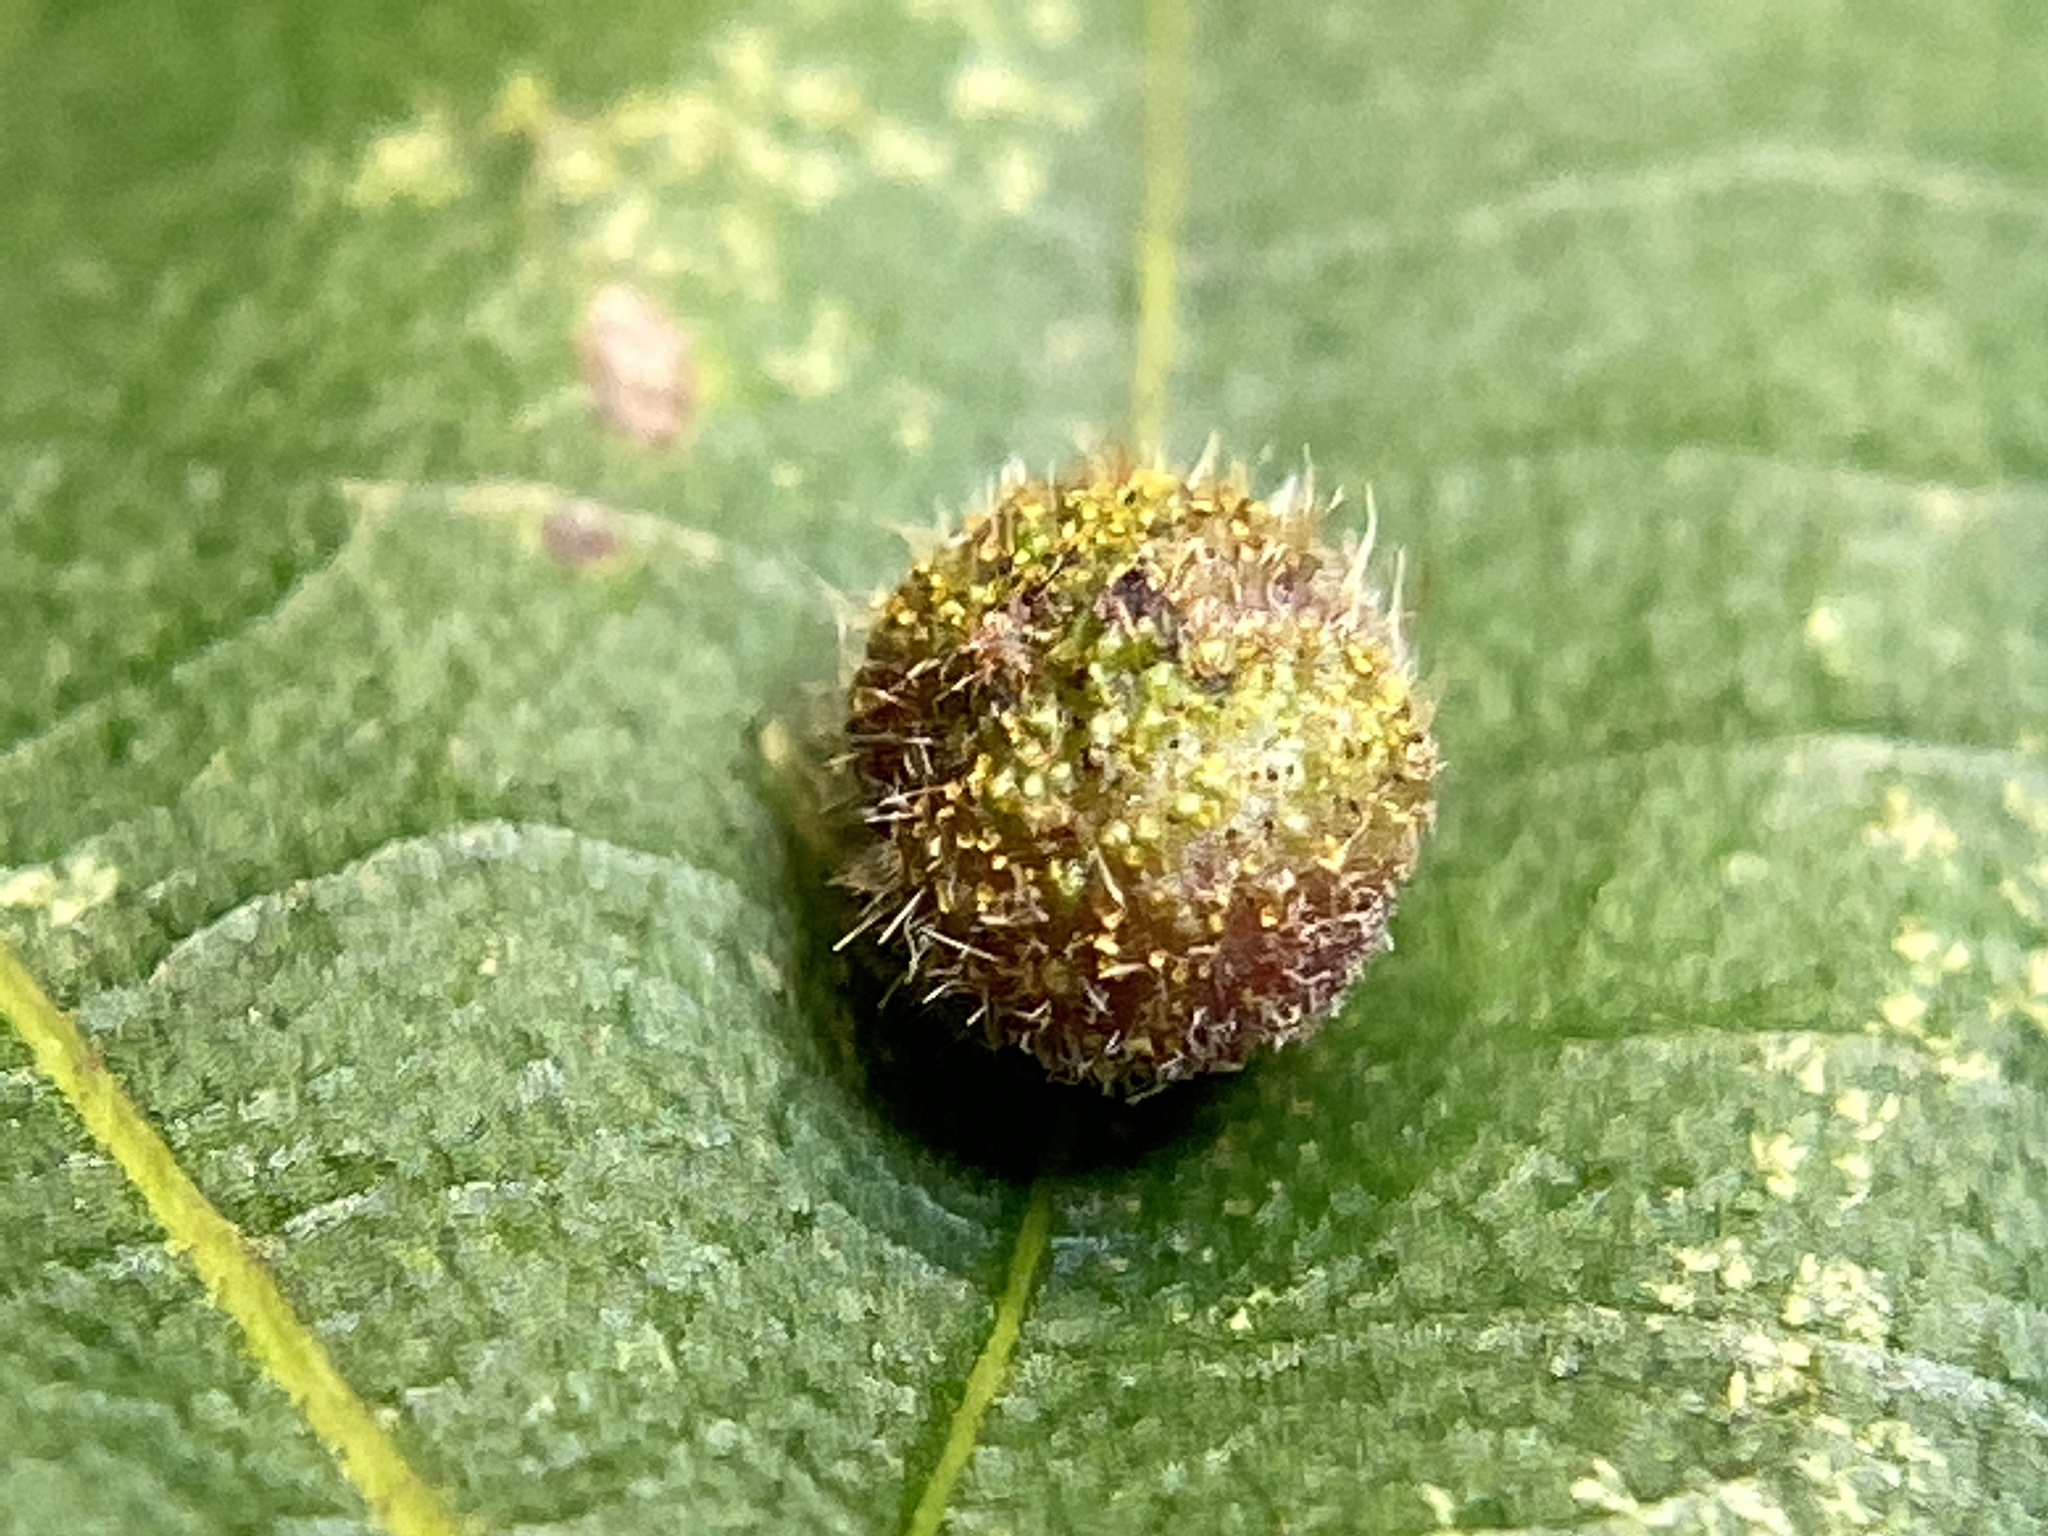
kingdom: Animalia
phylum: Arthropoda
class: Insecta
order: Diptera
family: Cecidomyiidae
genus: Caryomyia
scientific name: Caryomyia turbanella
